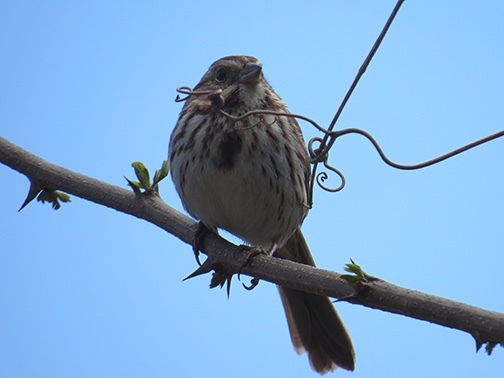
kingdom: Animalia
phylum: Chordata
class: Aves
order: Passeriformes
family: Passerellidae
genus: Melospiza
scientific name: Melospiza melodia
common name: Song sparrow
